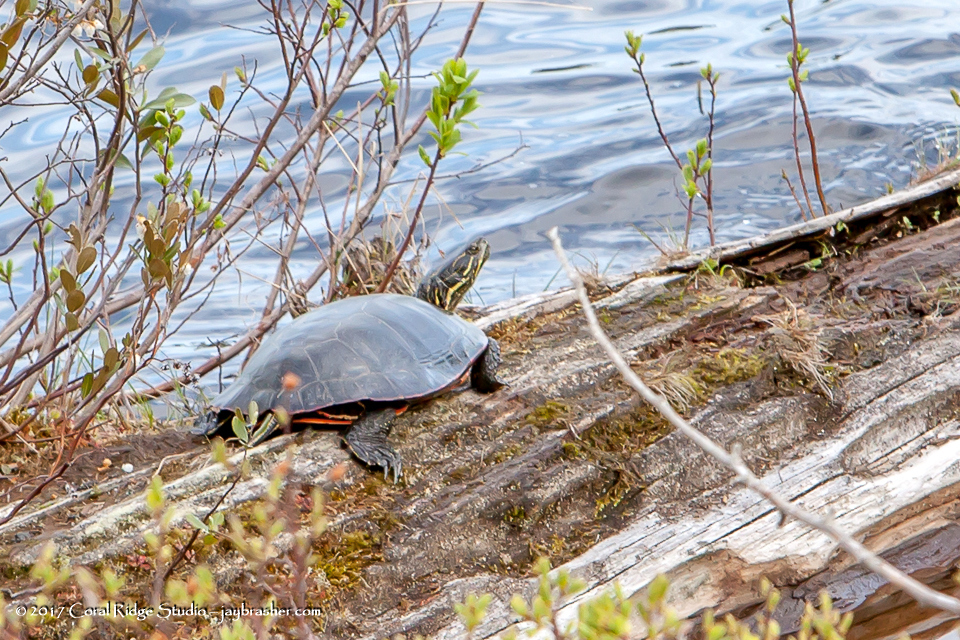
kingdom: Animalia
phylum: Chordata
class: Testudines
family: Emydidae
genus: Chrysemys
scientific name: Chrysemys picta
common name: Painted turtle
